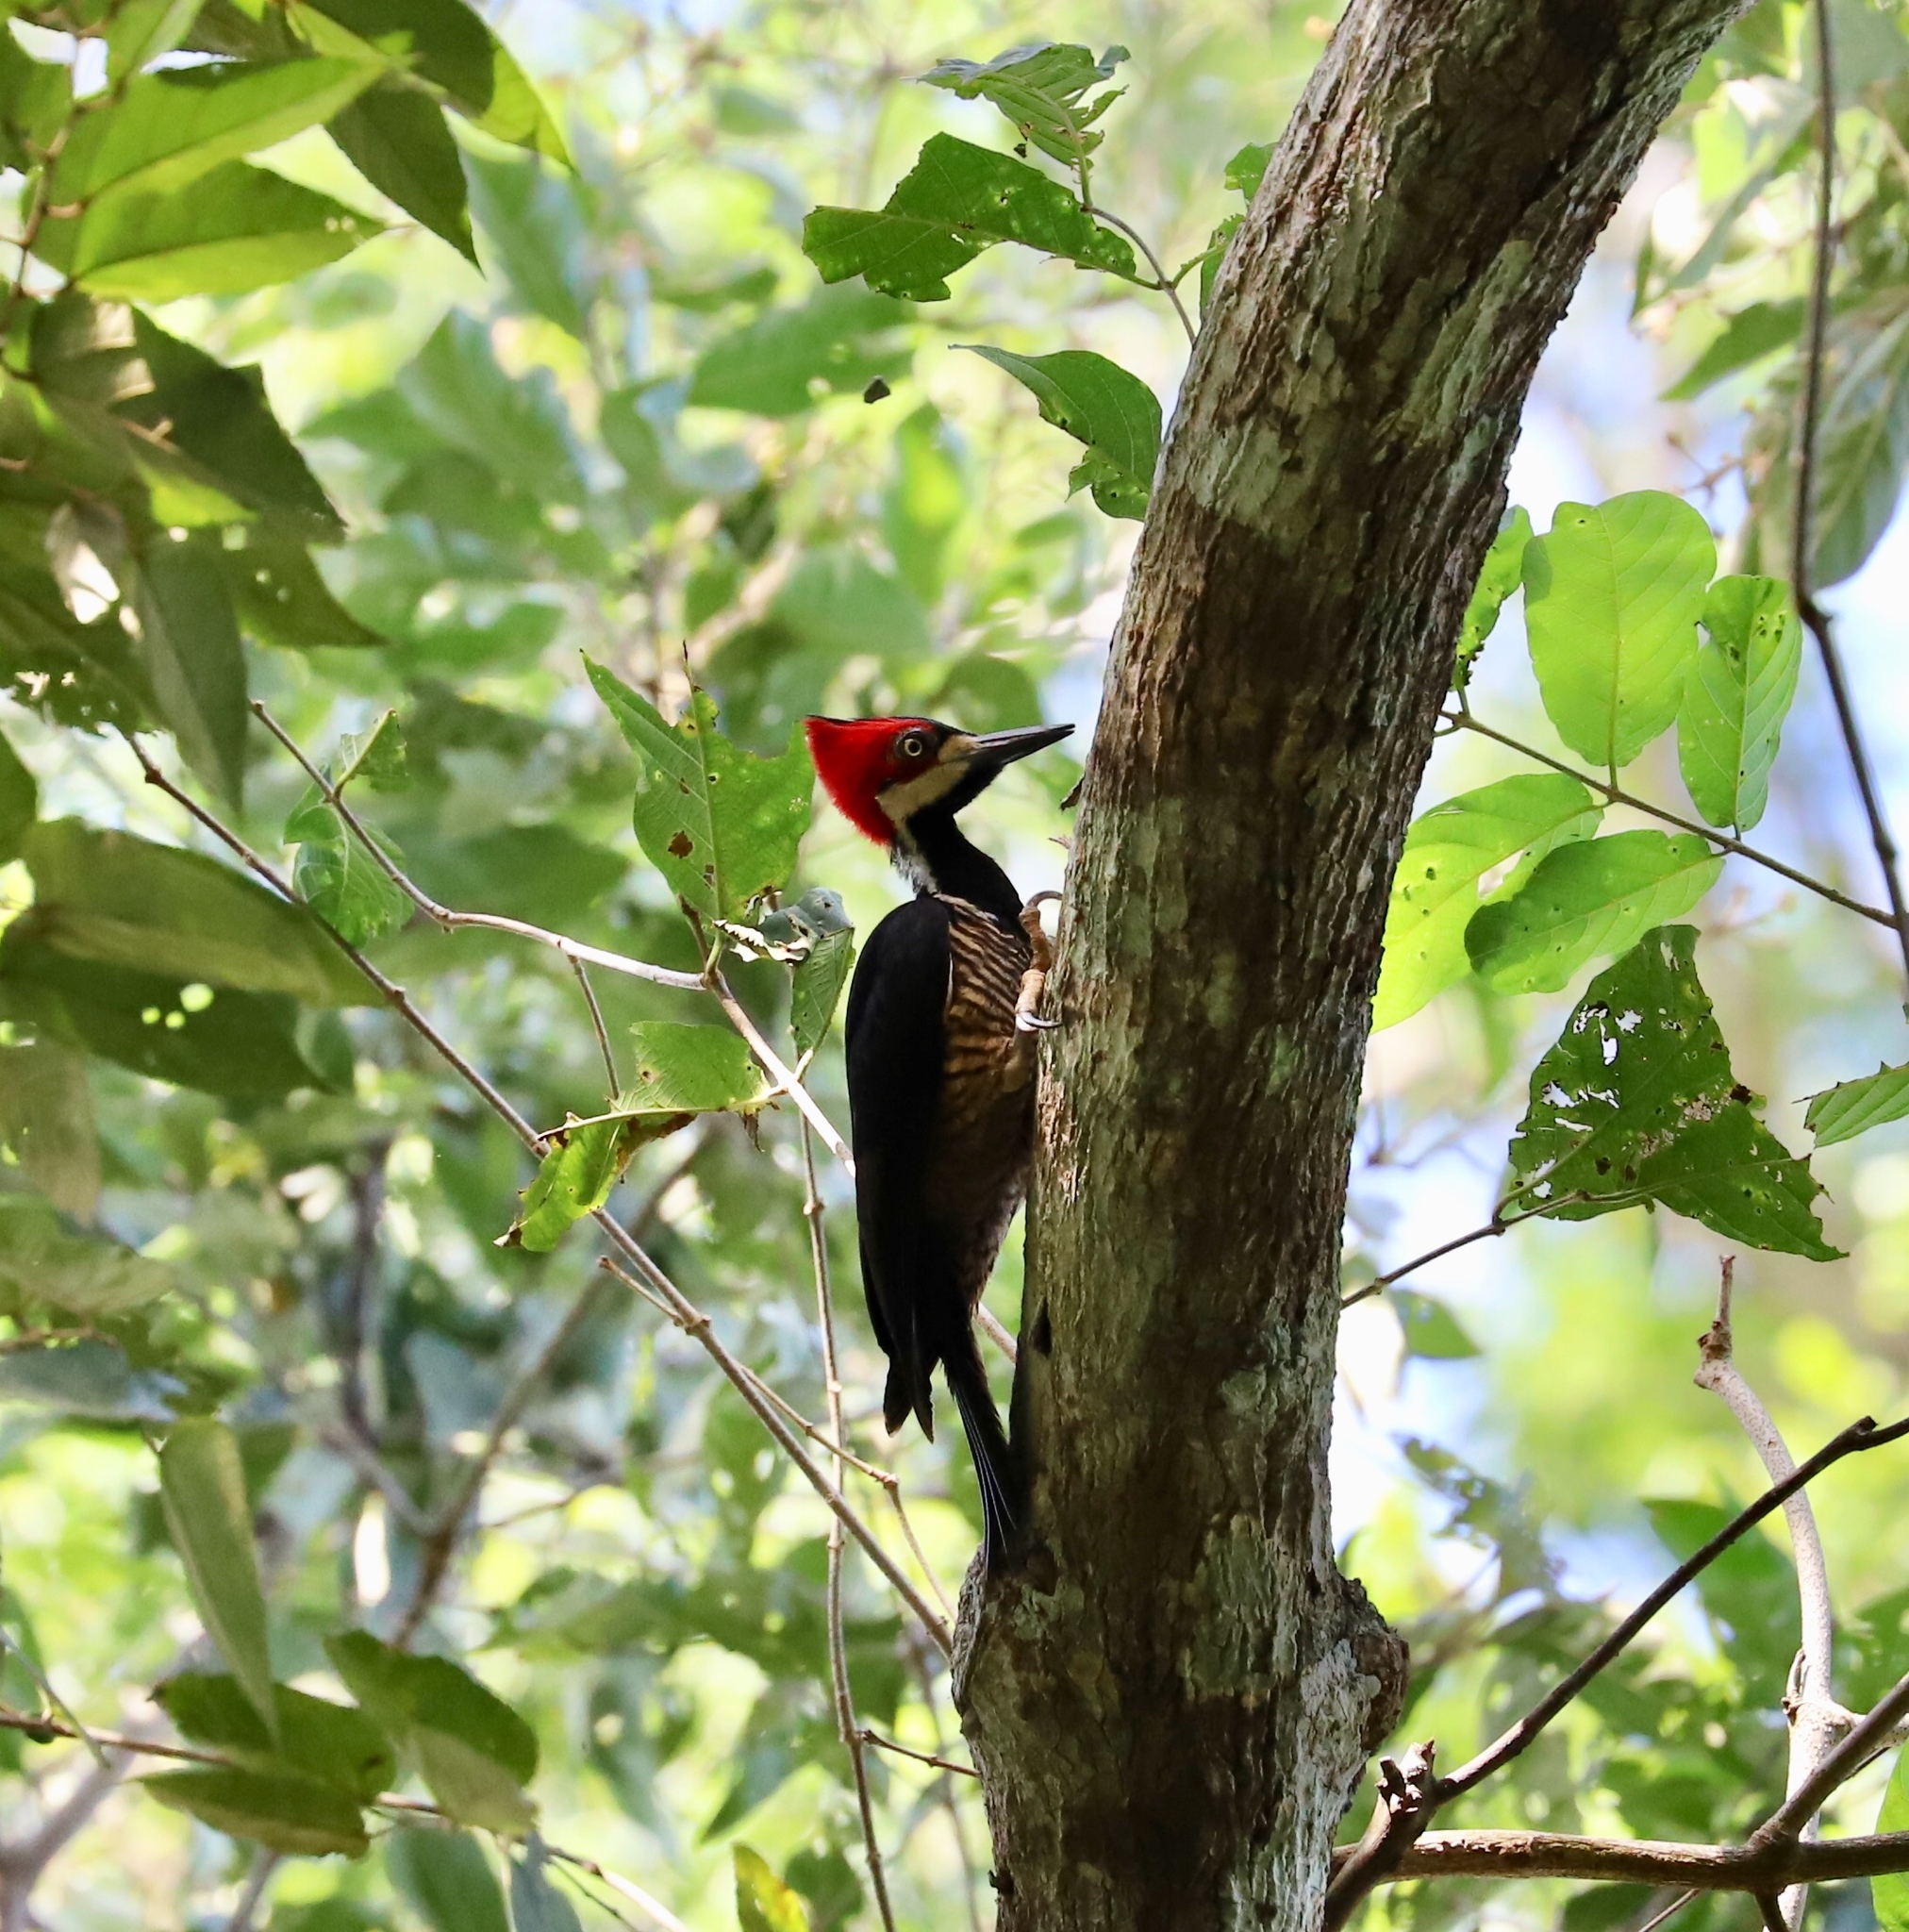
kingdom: Animalia
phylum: Chordata
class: Aves
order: Piciformes
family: Picidae
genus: Campephilus
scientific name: Campephilus melanoleucos
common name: Crimson-crested woodpecker
